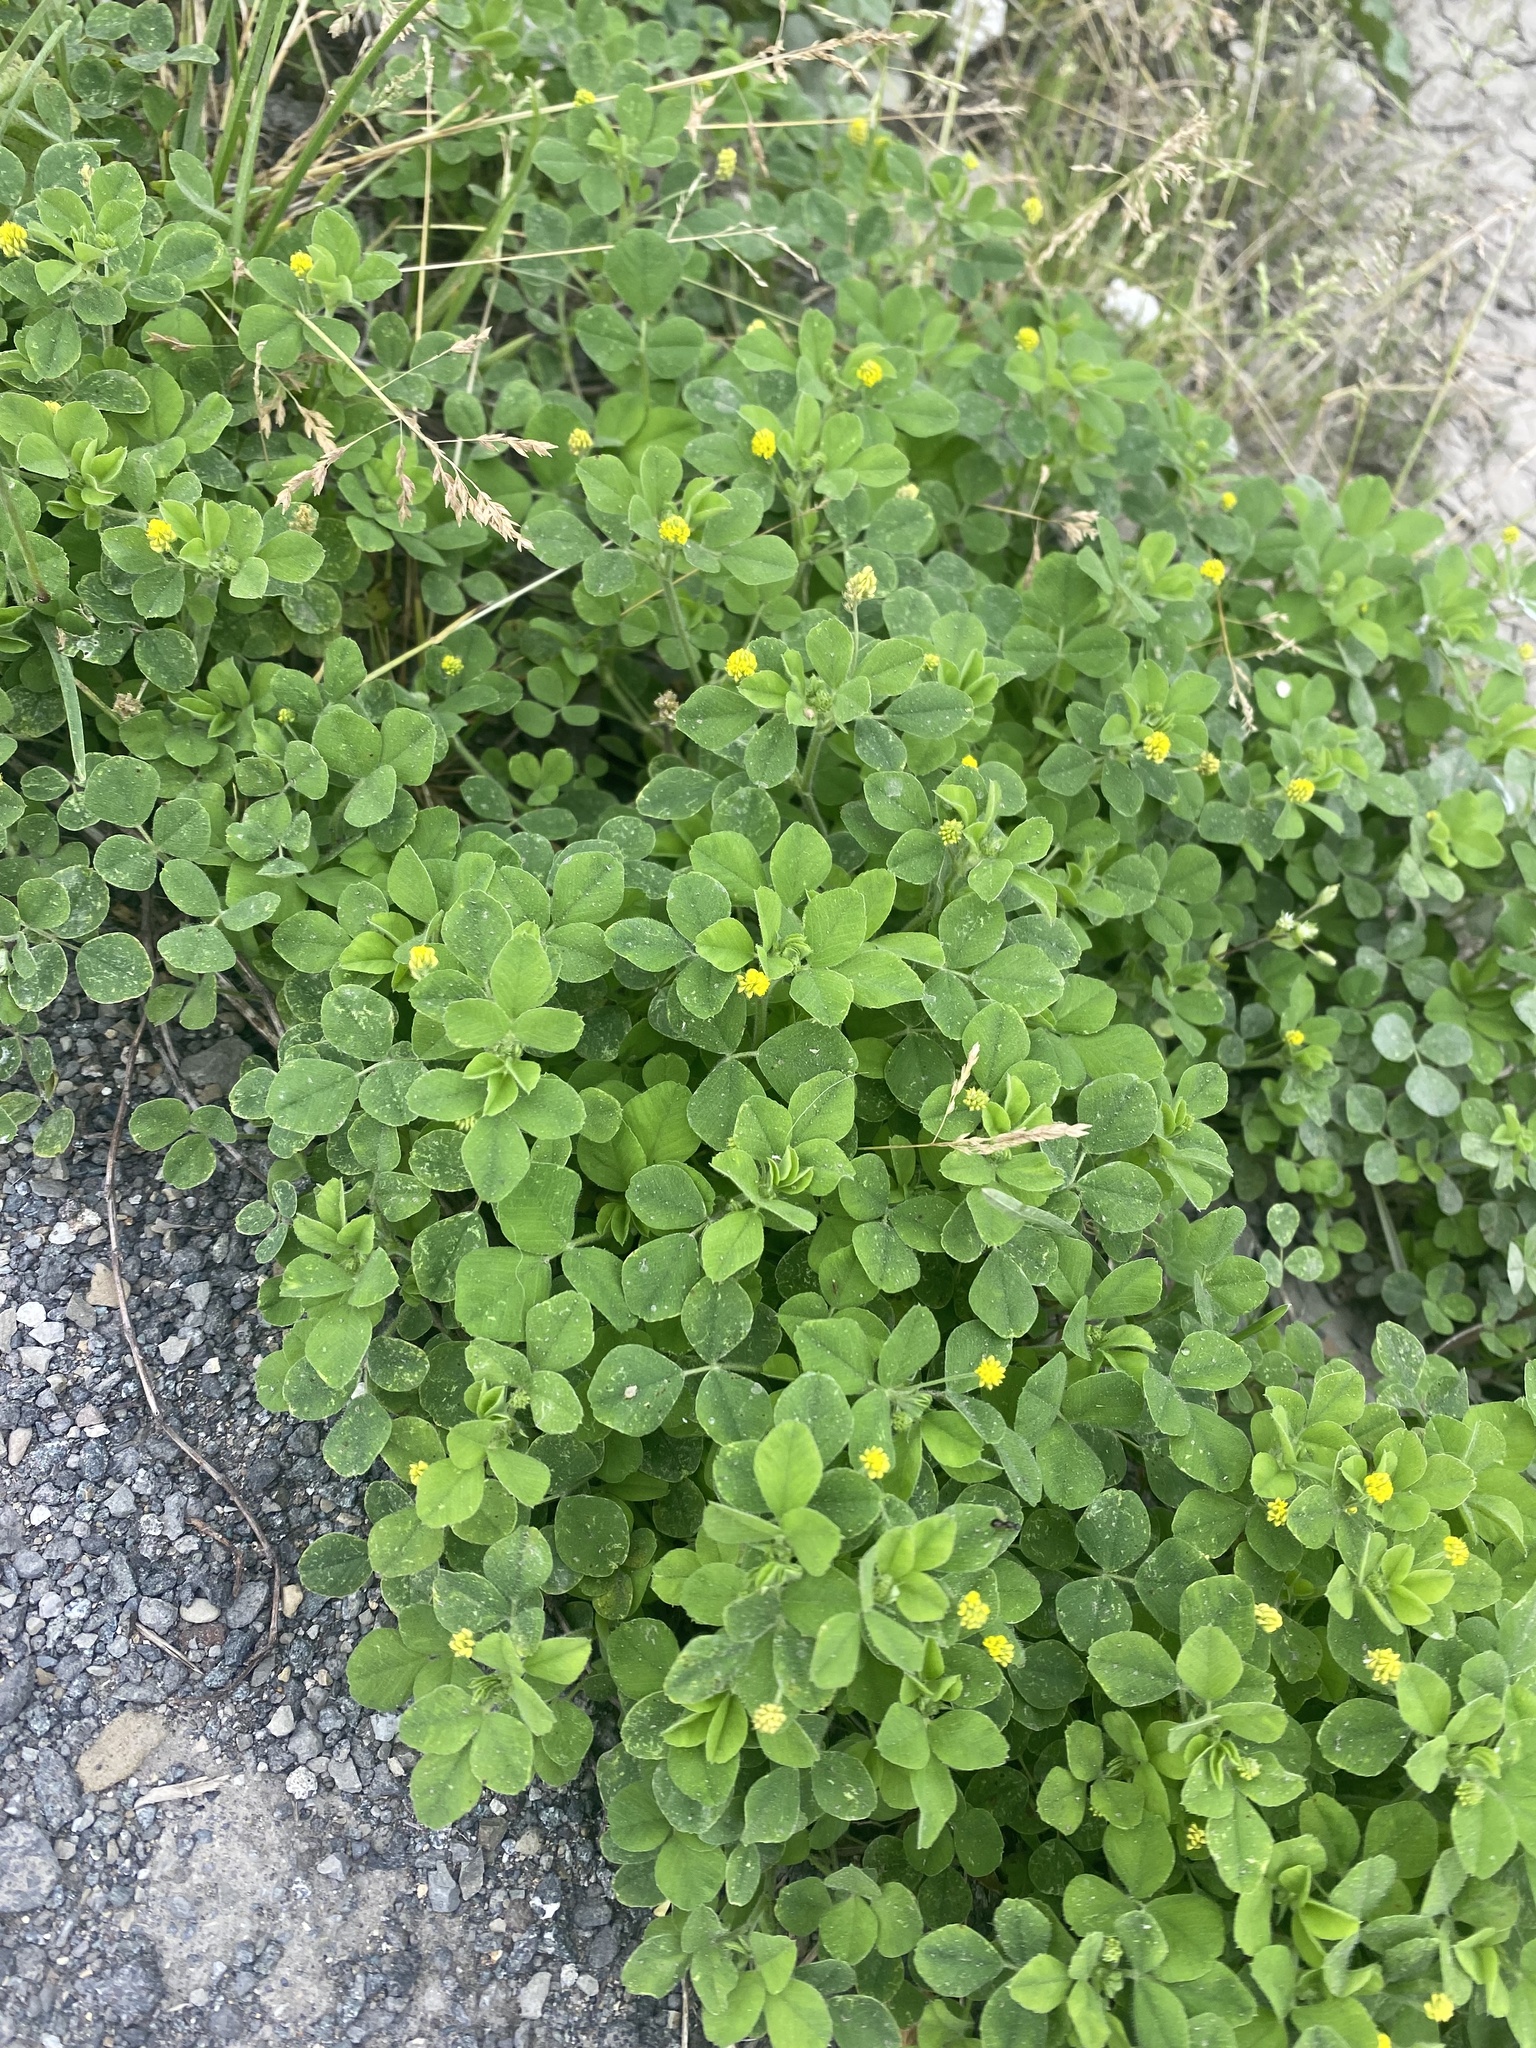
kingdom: Plantae
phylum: Tracheophyta
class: Magnoliopsida
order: Fabales
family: Fabaceae
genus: Medicago
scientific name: Medicago lupulina
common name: Black medick
